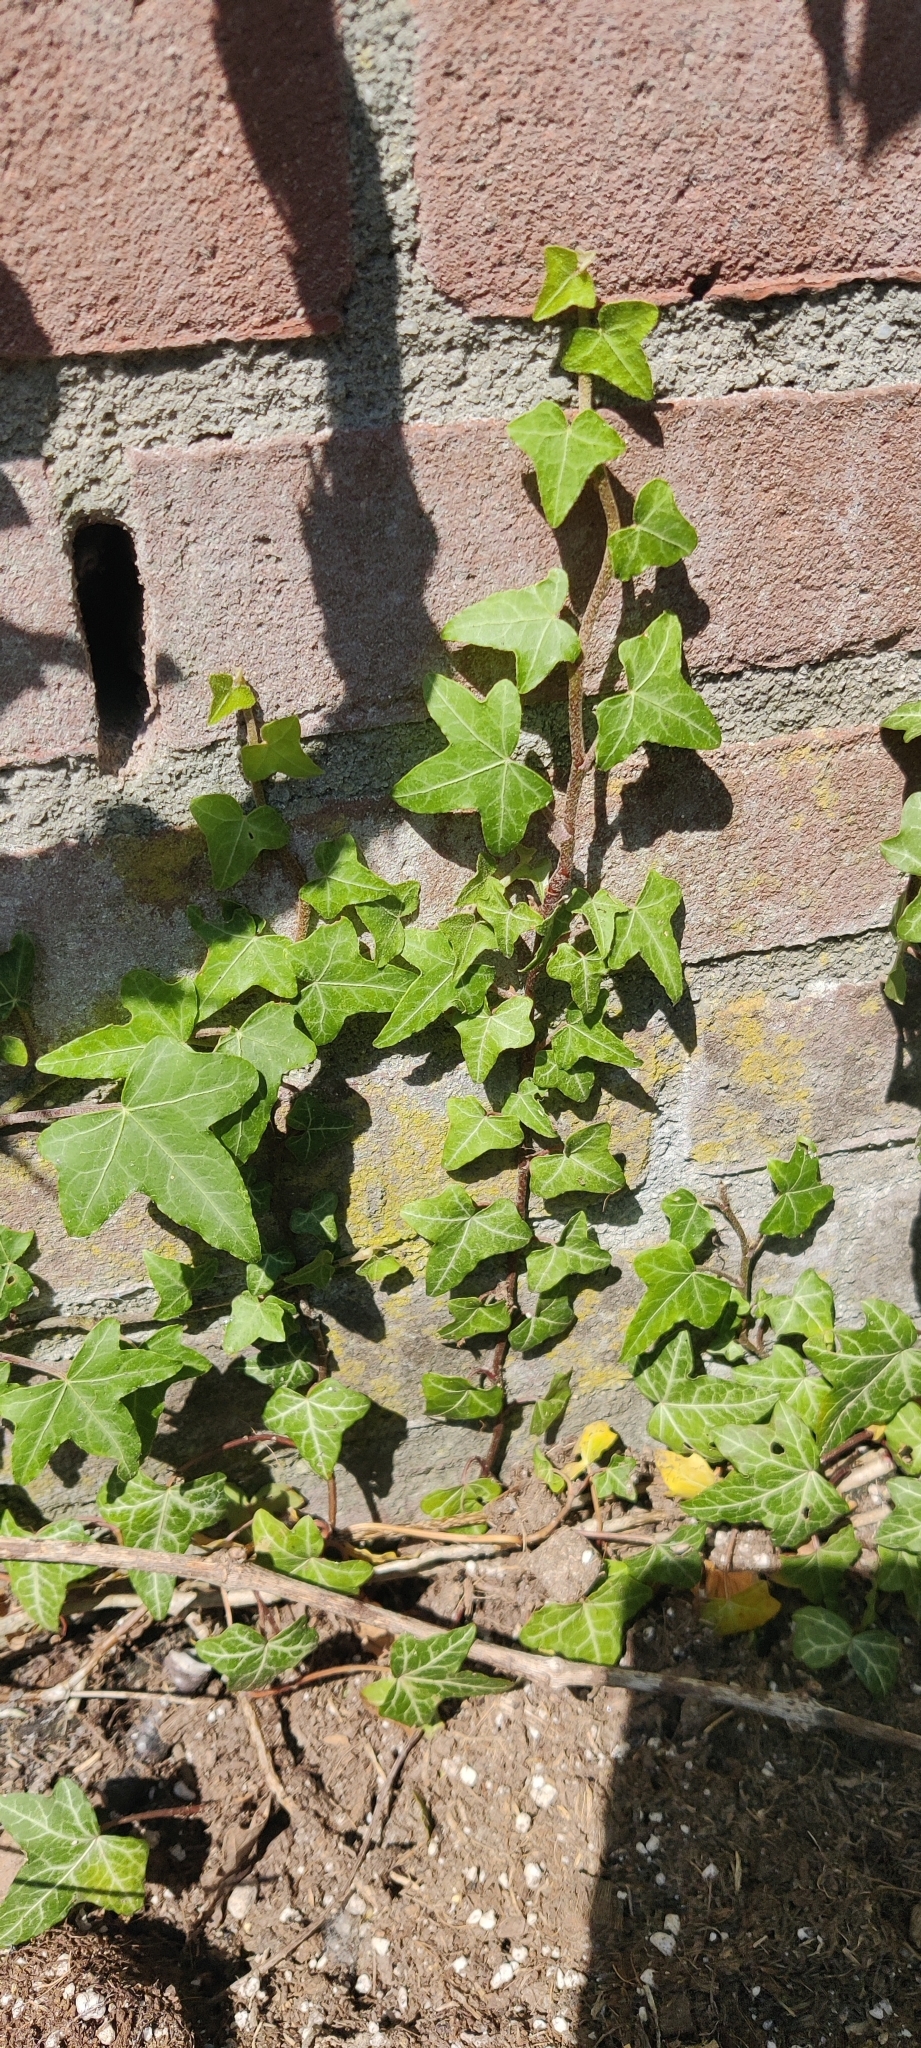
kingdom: Plantae
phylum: Tracheophyta
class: Magnoliopsida
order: Apiales
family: Araliaceae
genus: Hedera
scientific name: Hedera helix
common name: Ivy
